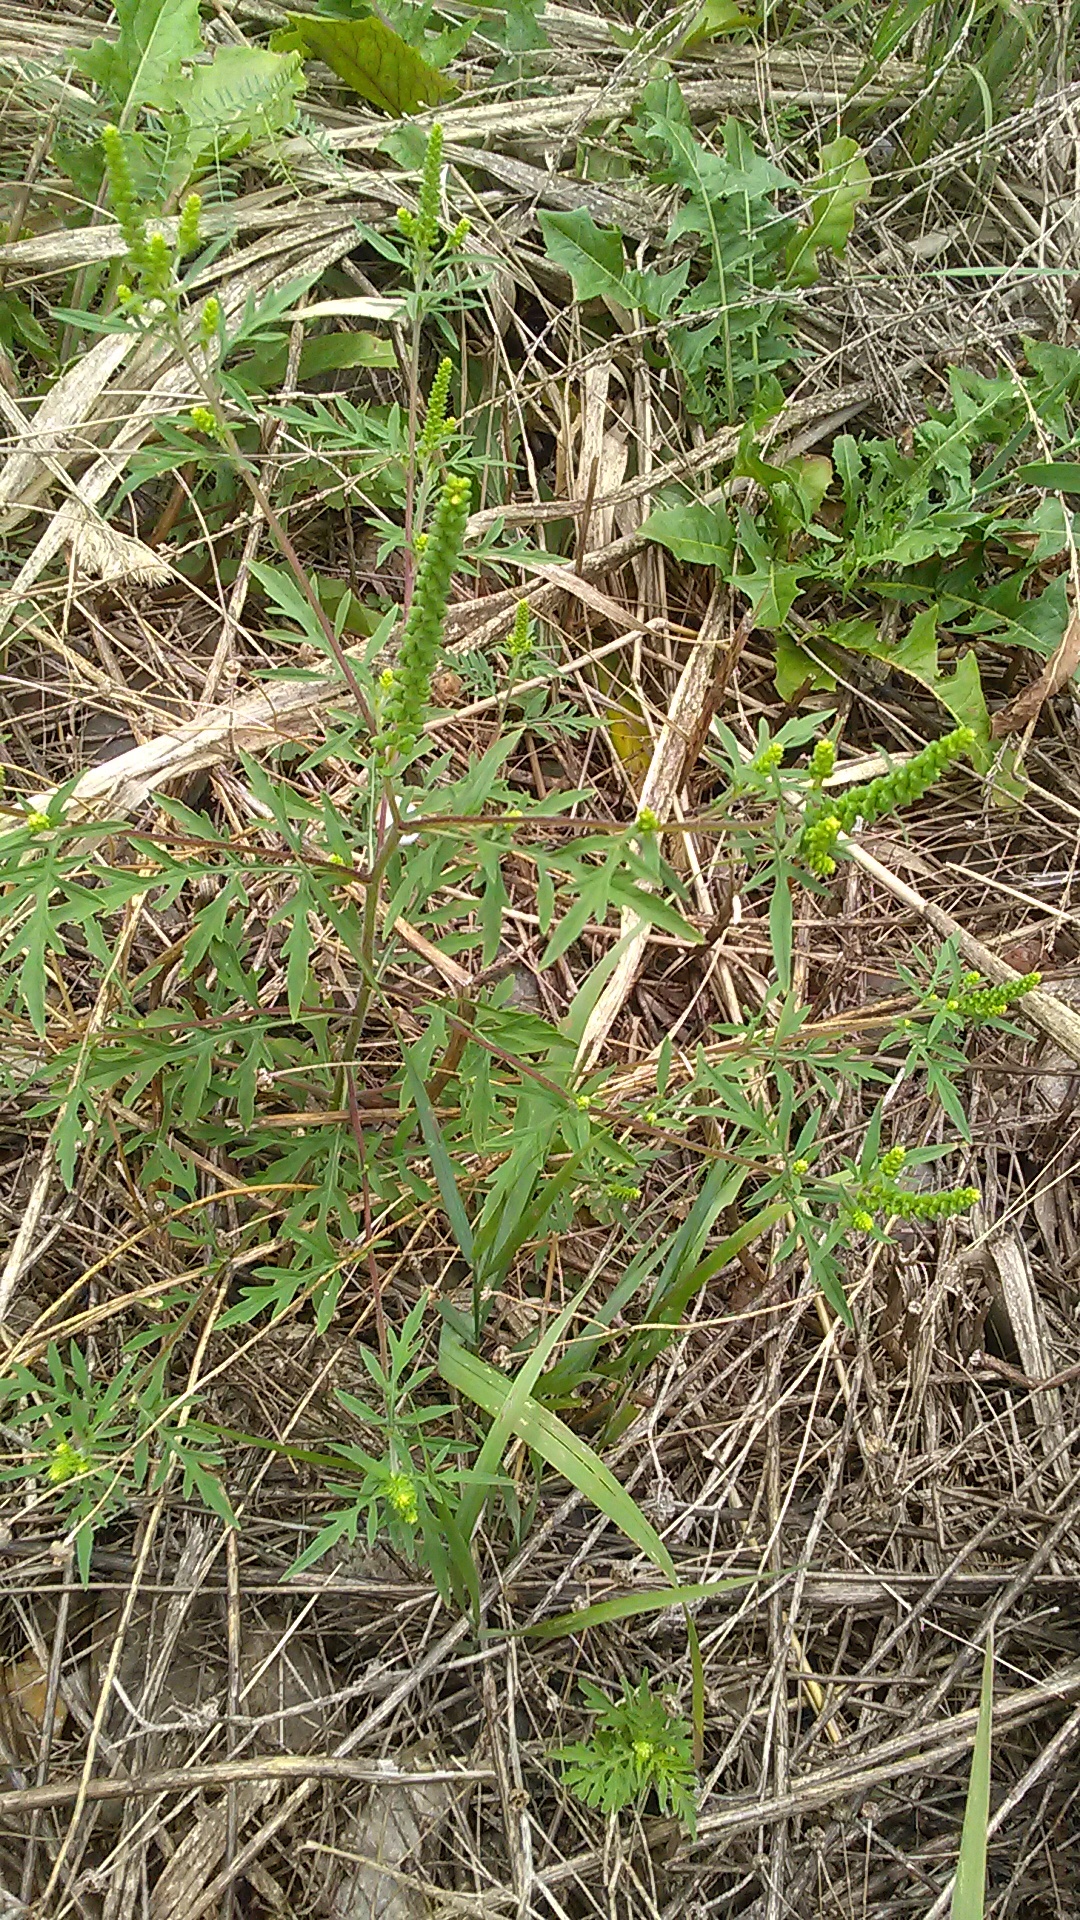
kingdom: Plantae
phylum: Tracheophyta
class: Magnoliopsida
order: Asterales
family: Asteraceae
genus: Ambrosia
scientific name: Ambrosia artemisiifolia
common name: Annual ragweed
